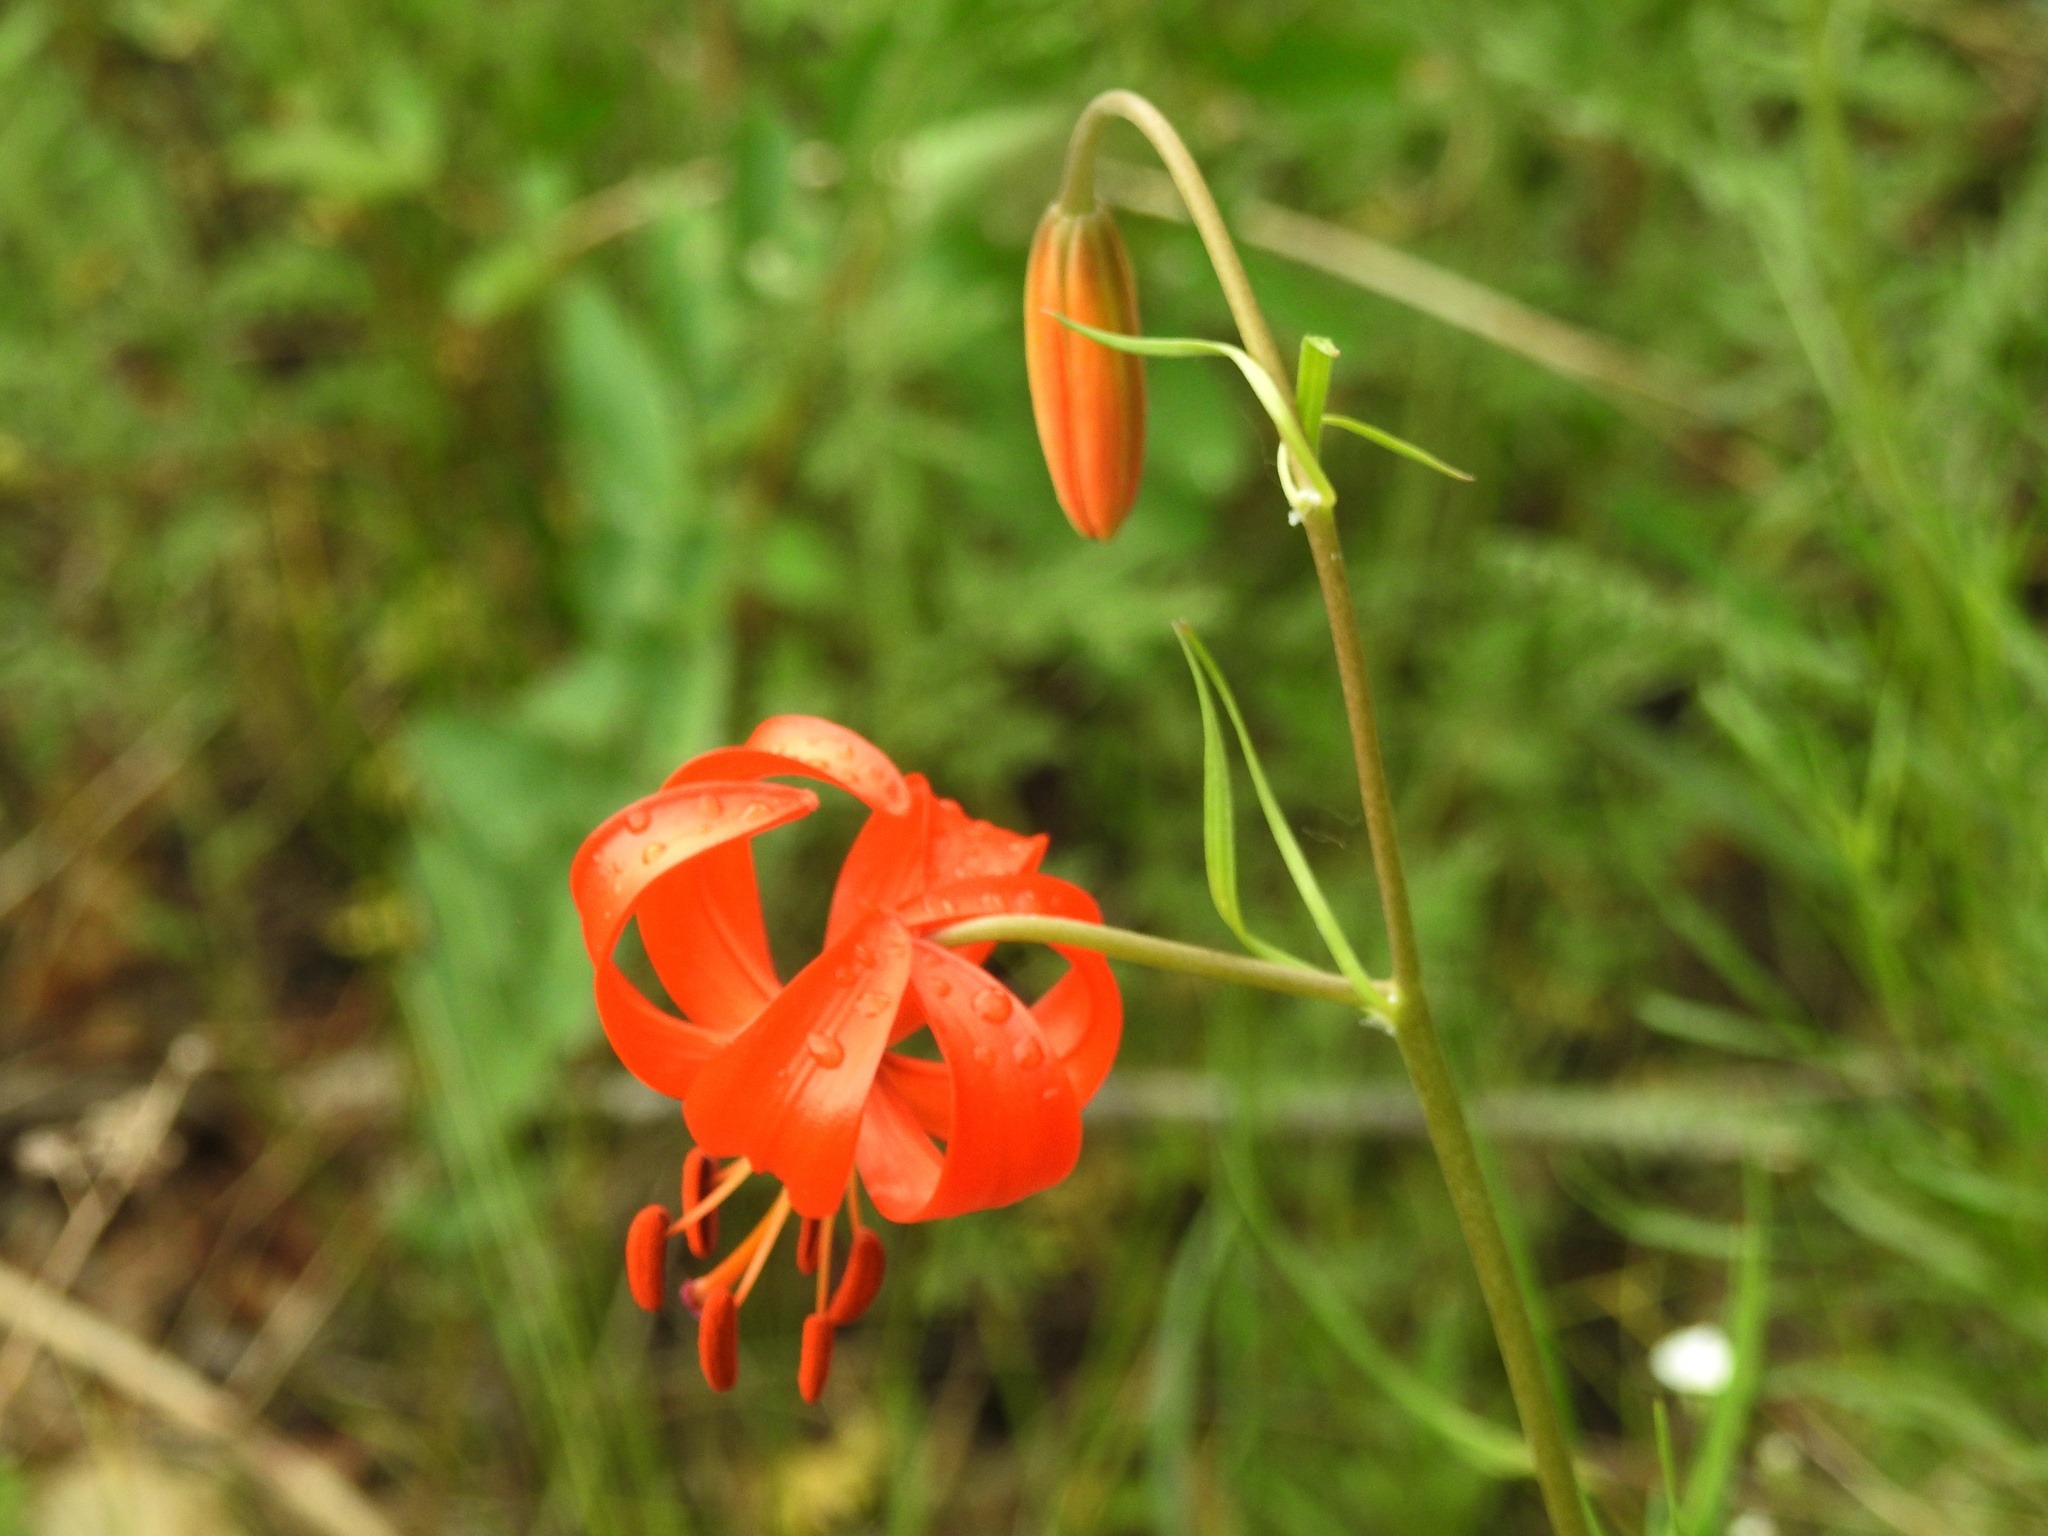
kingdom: Plantae
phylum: Tracheophyta
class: Liliopsida
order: Liliales
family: Liliaceae
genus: Lilium
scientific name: Lilium pumilum
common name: Coral lily
